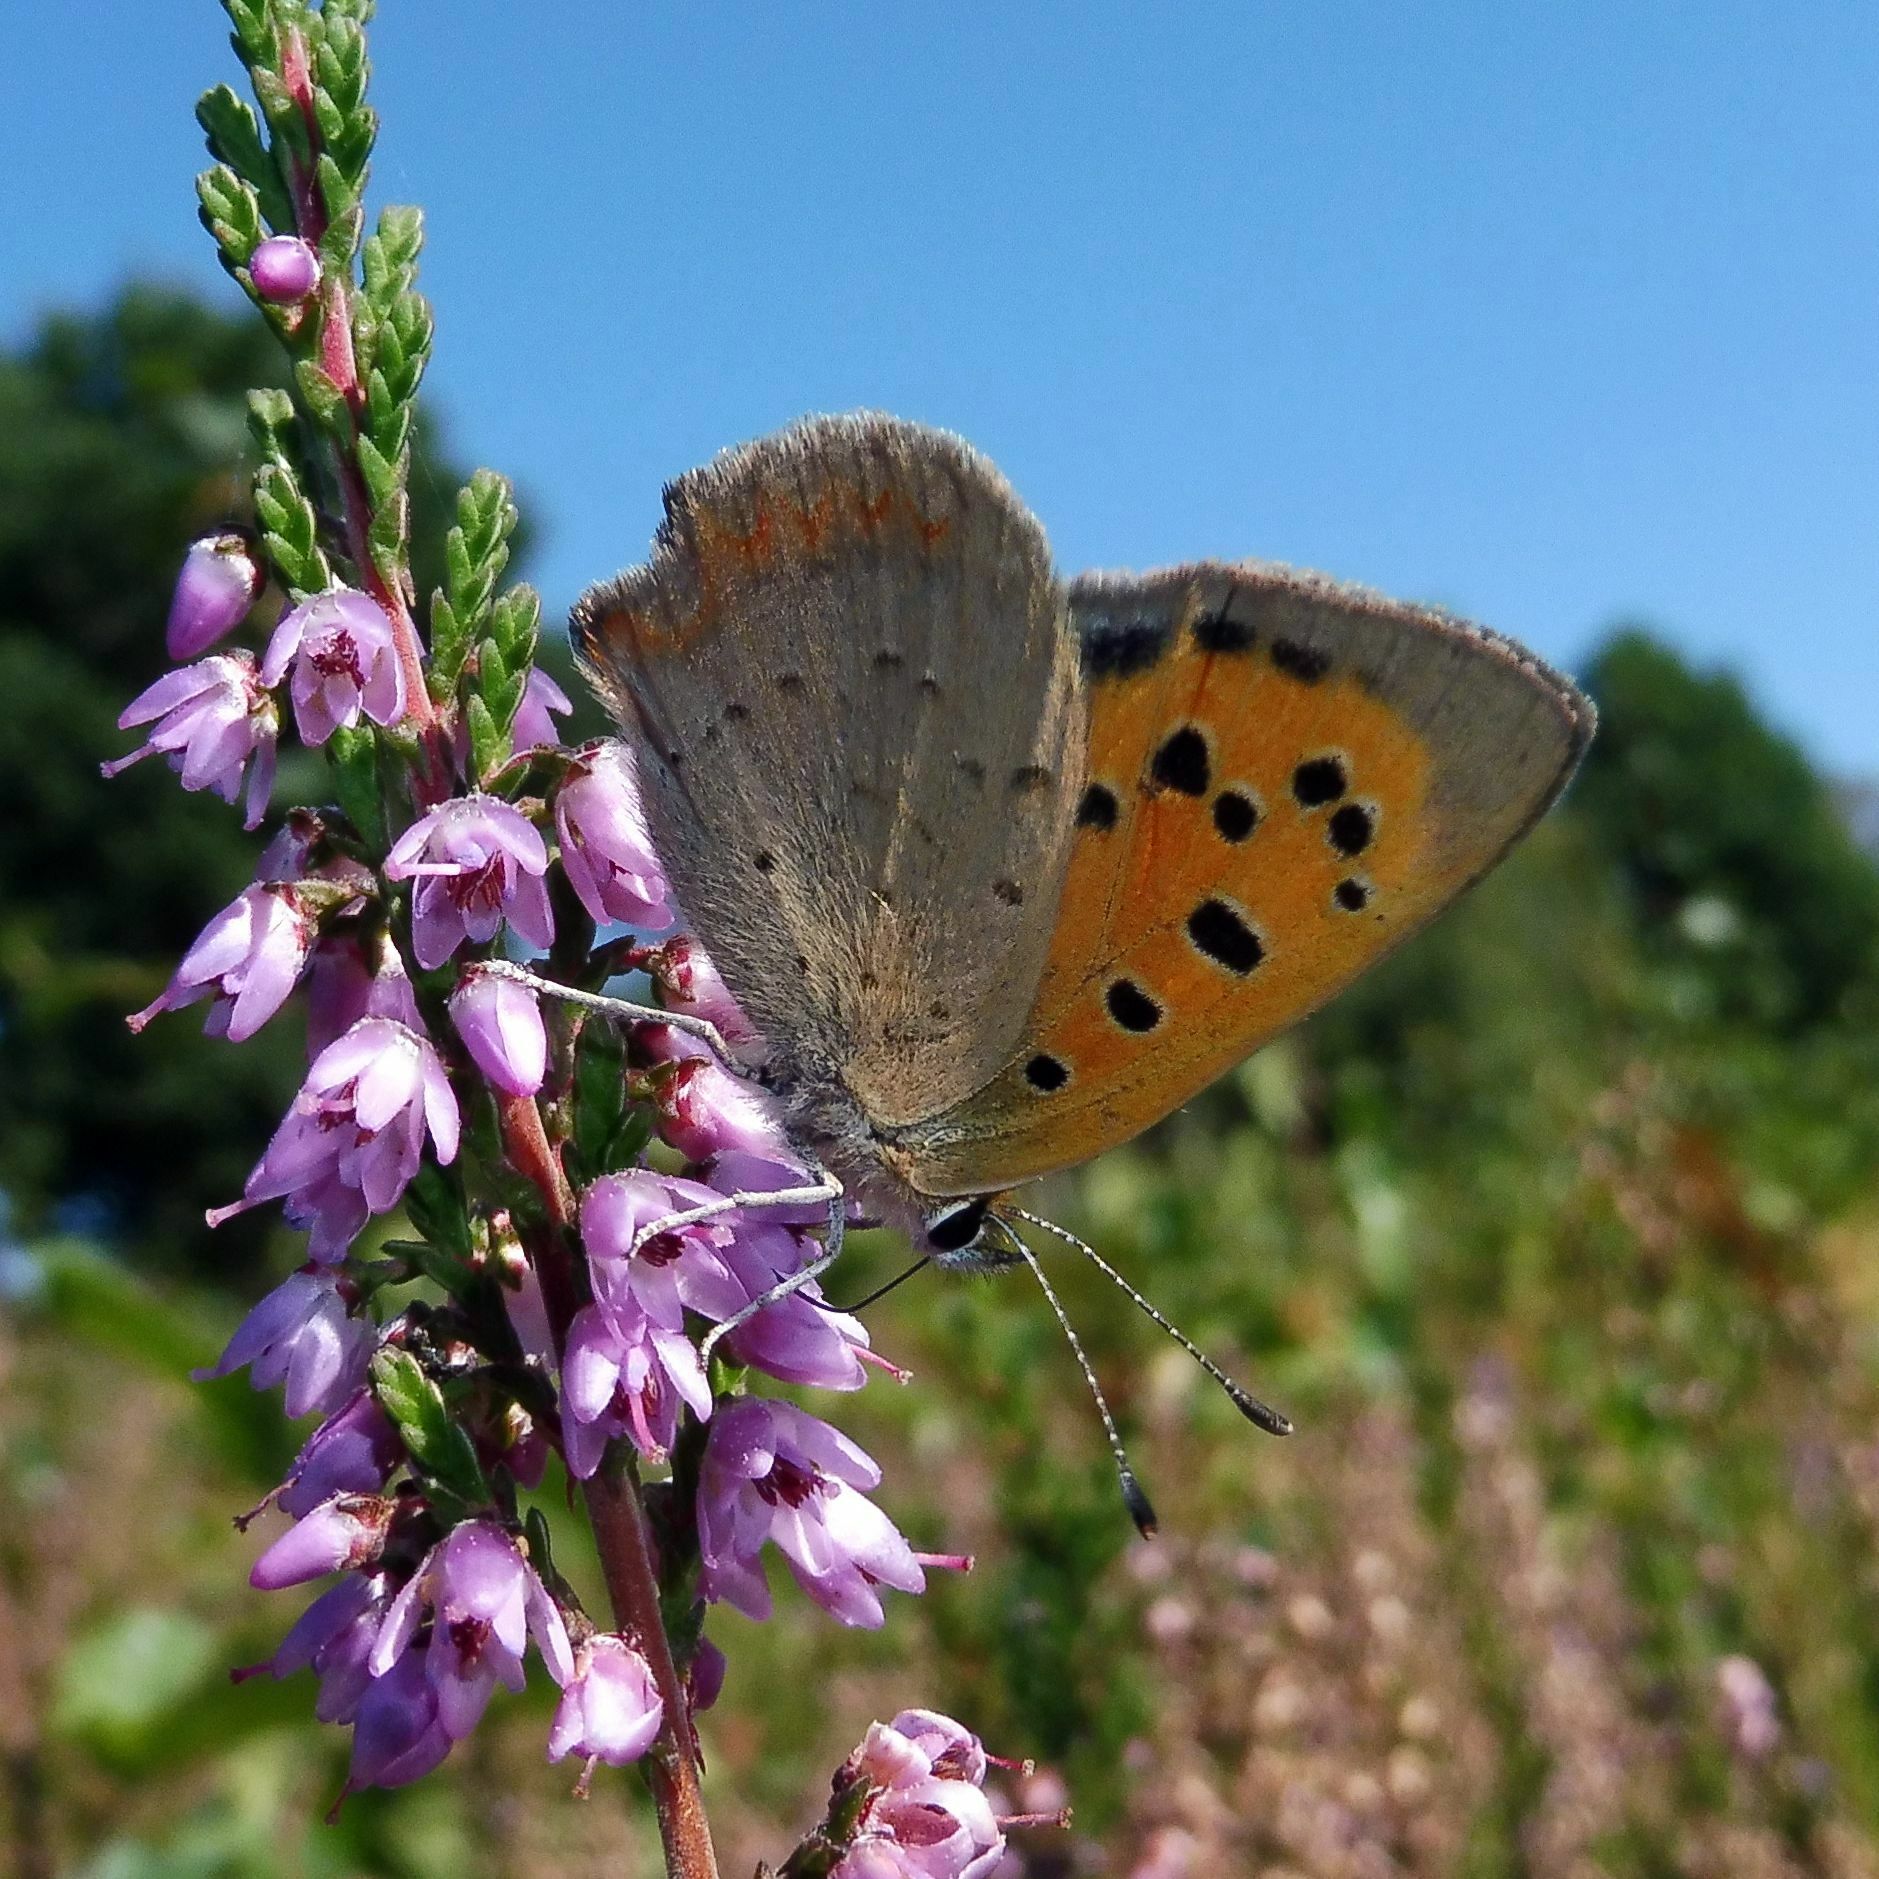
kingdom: Animalia
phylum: Arthropoda
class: Insecta
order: Lepidoptera
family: Lycaenidae
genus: Lycaena
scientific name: Lycaena phlaeas
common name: Small copper
